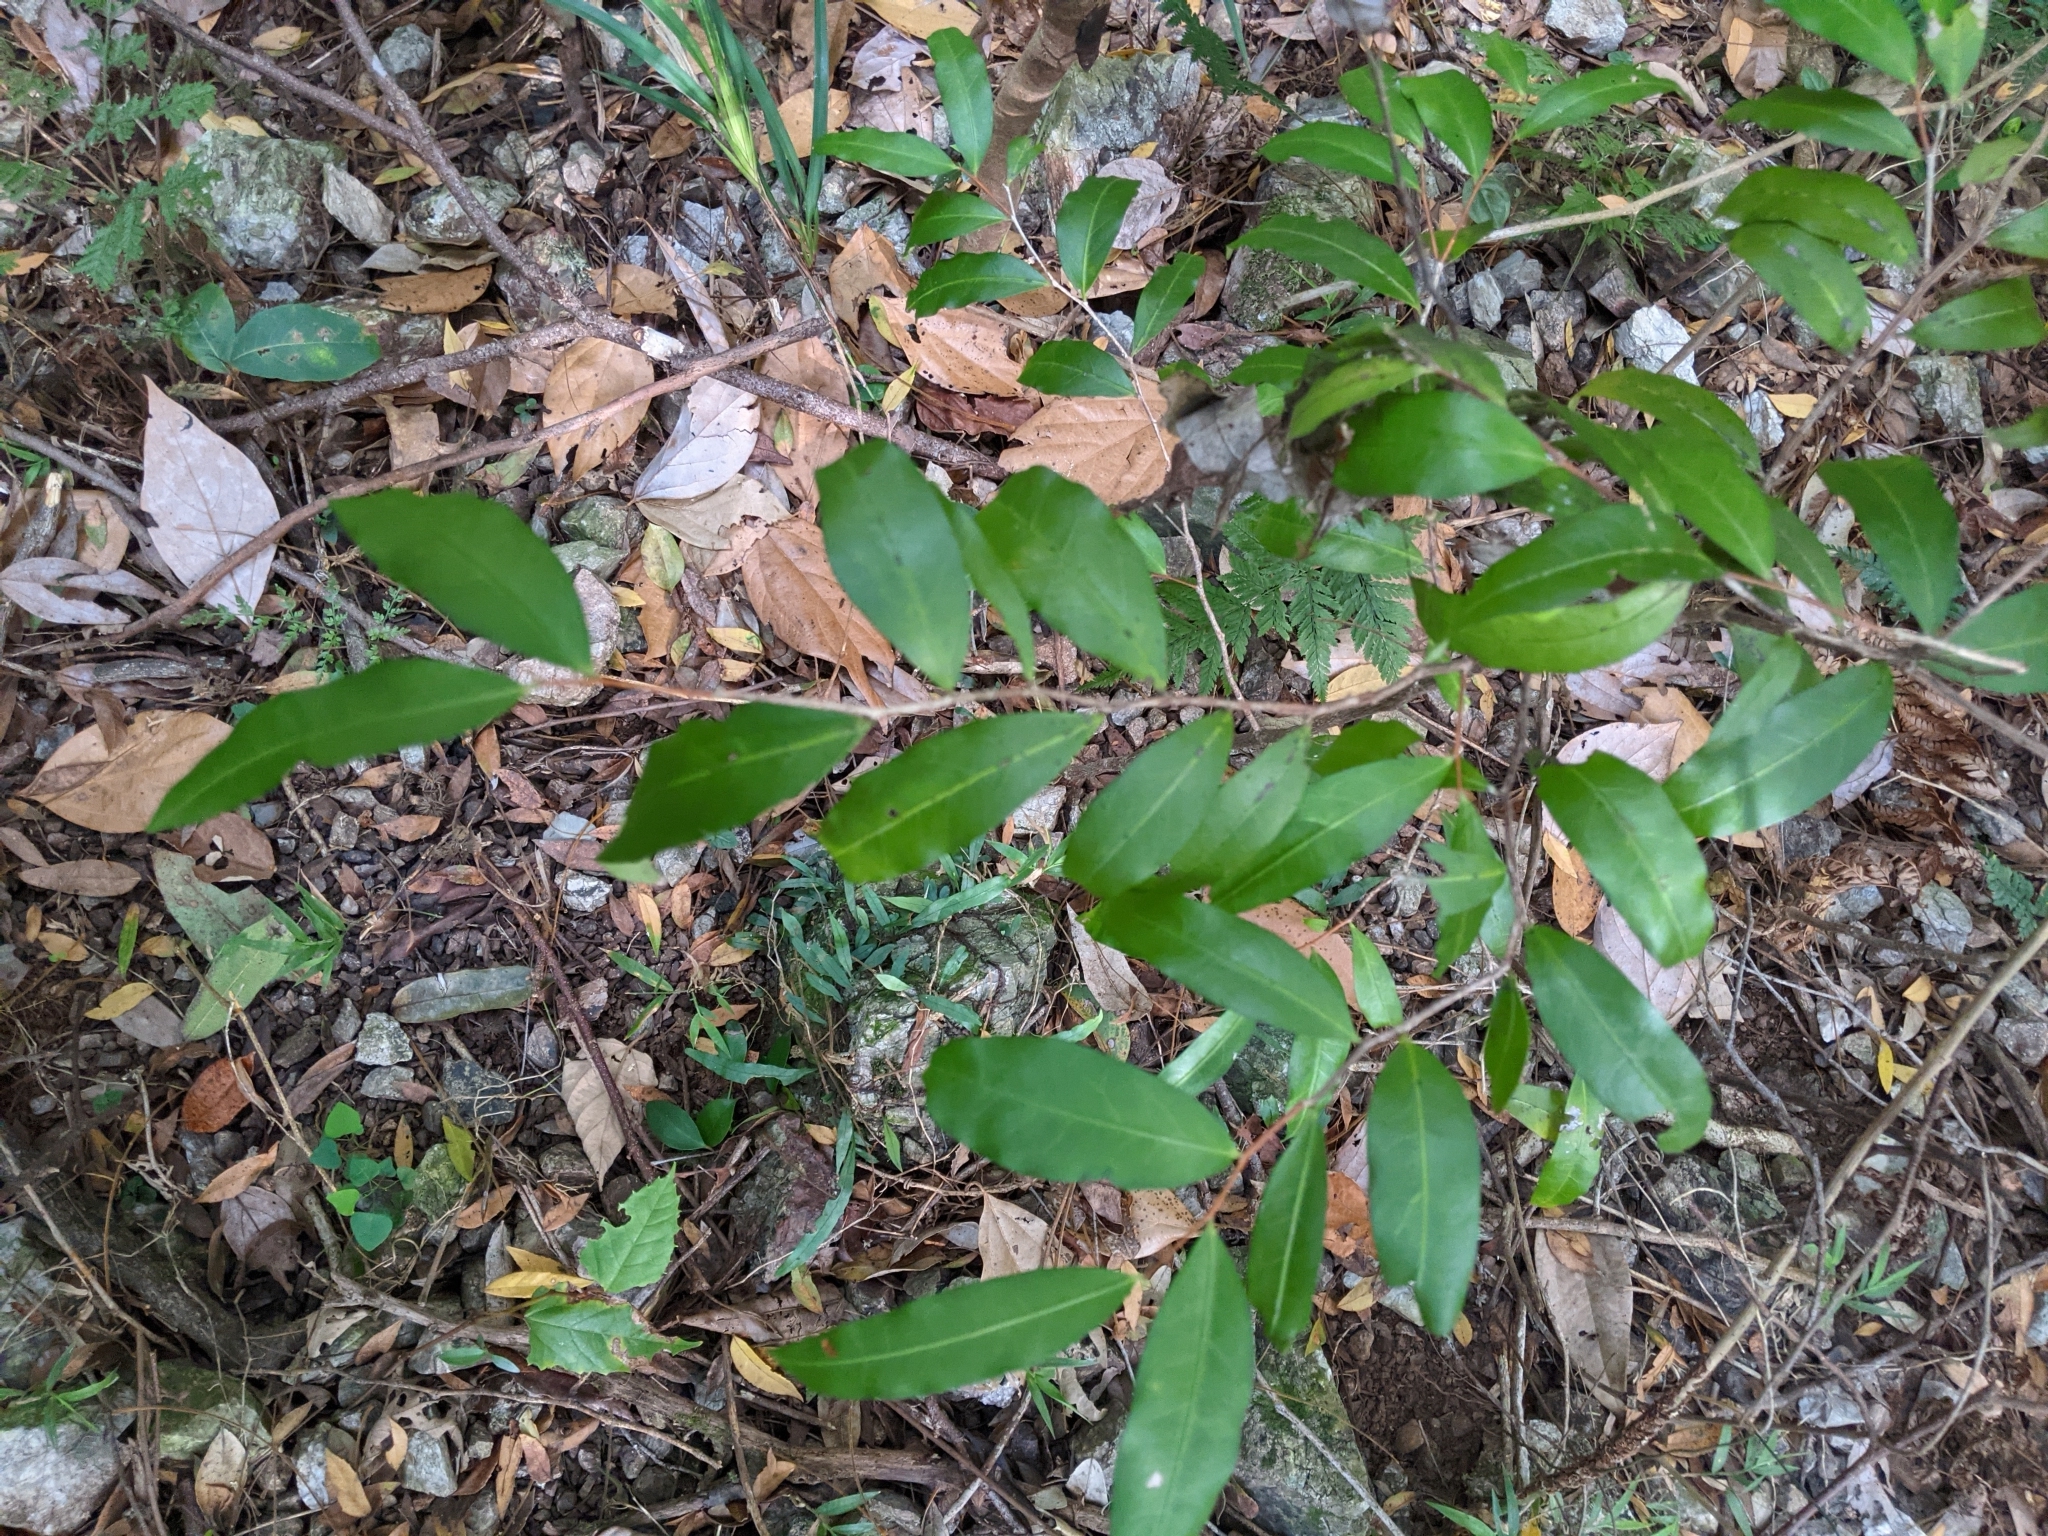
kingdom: Plantae
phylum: Tracheophyta
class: Magnoliopsida
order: Celastrales
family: Celastraceae
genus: Hedraianthera
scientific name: Hedraianthera porphyropetala
